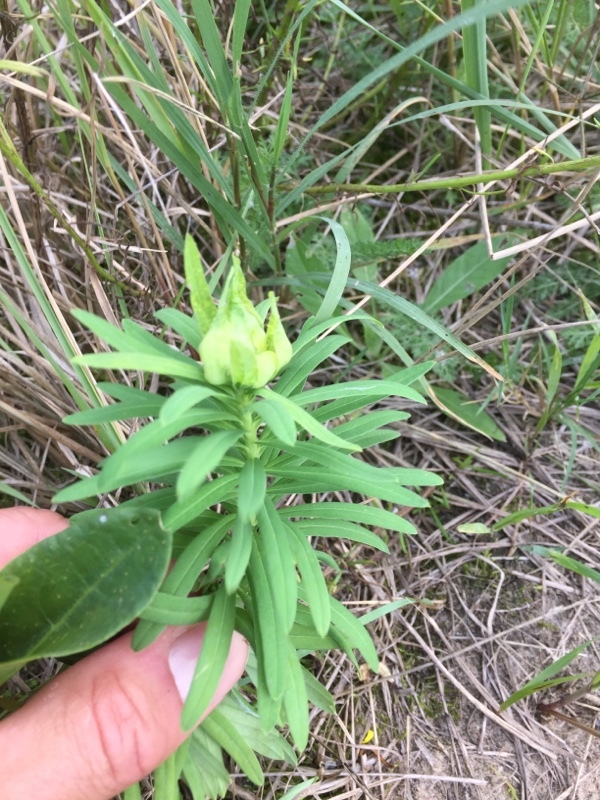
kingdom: Plantae
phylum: Tracheophyta
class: Magnoliopsida
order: Malpighiales
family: Euphorbiaceae
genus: Euphorbia
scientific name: Euphorbia esula
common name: Leafy spurge
